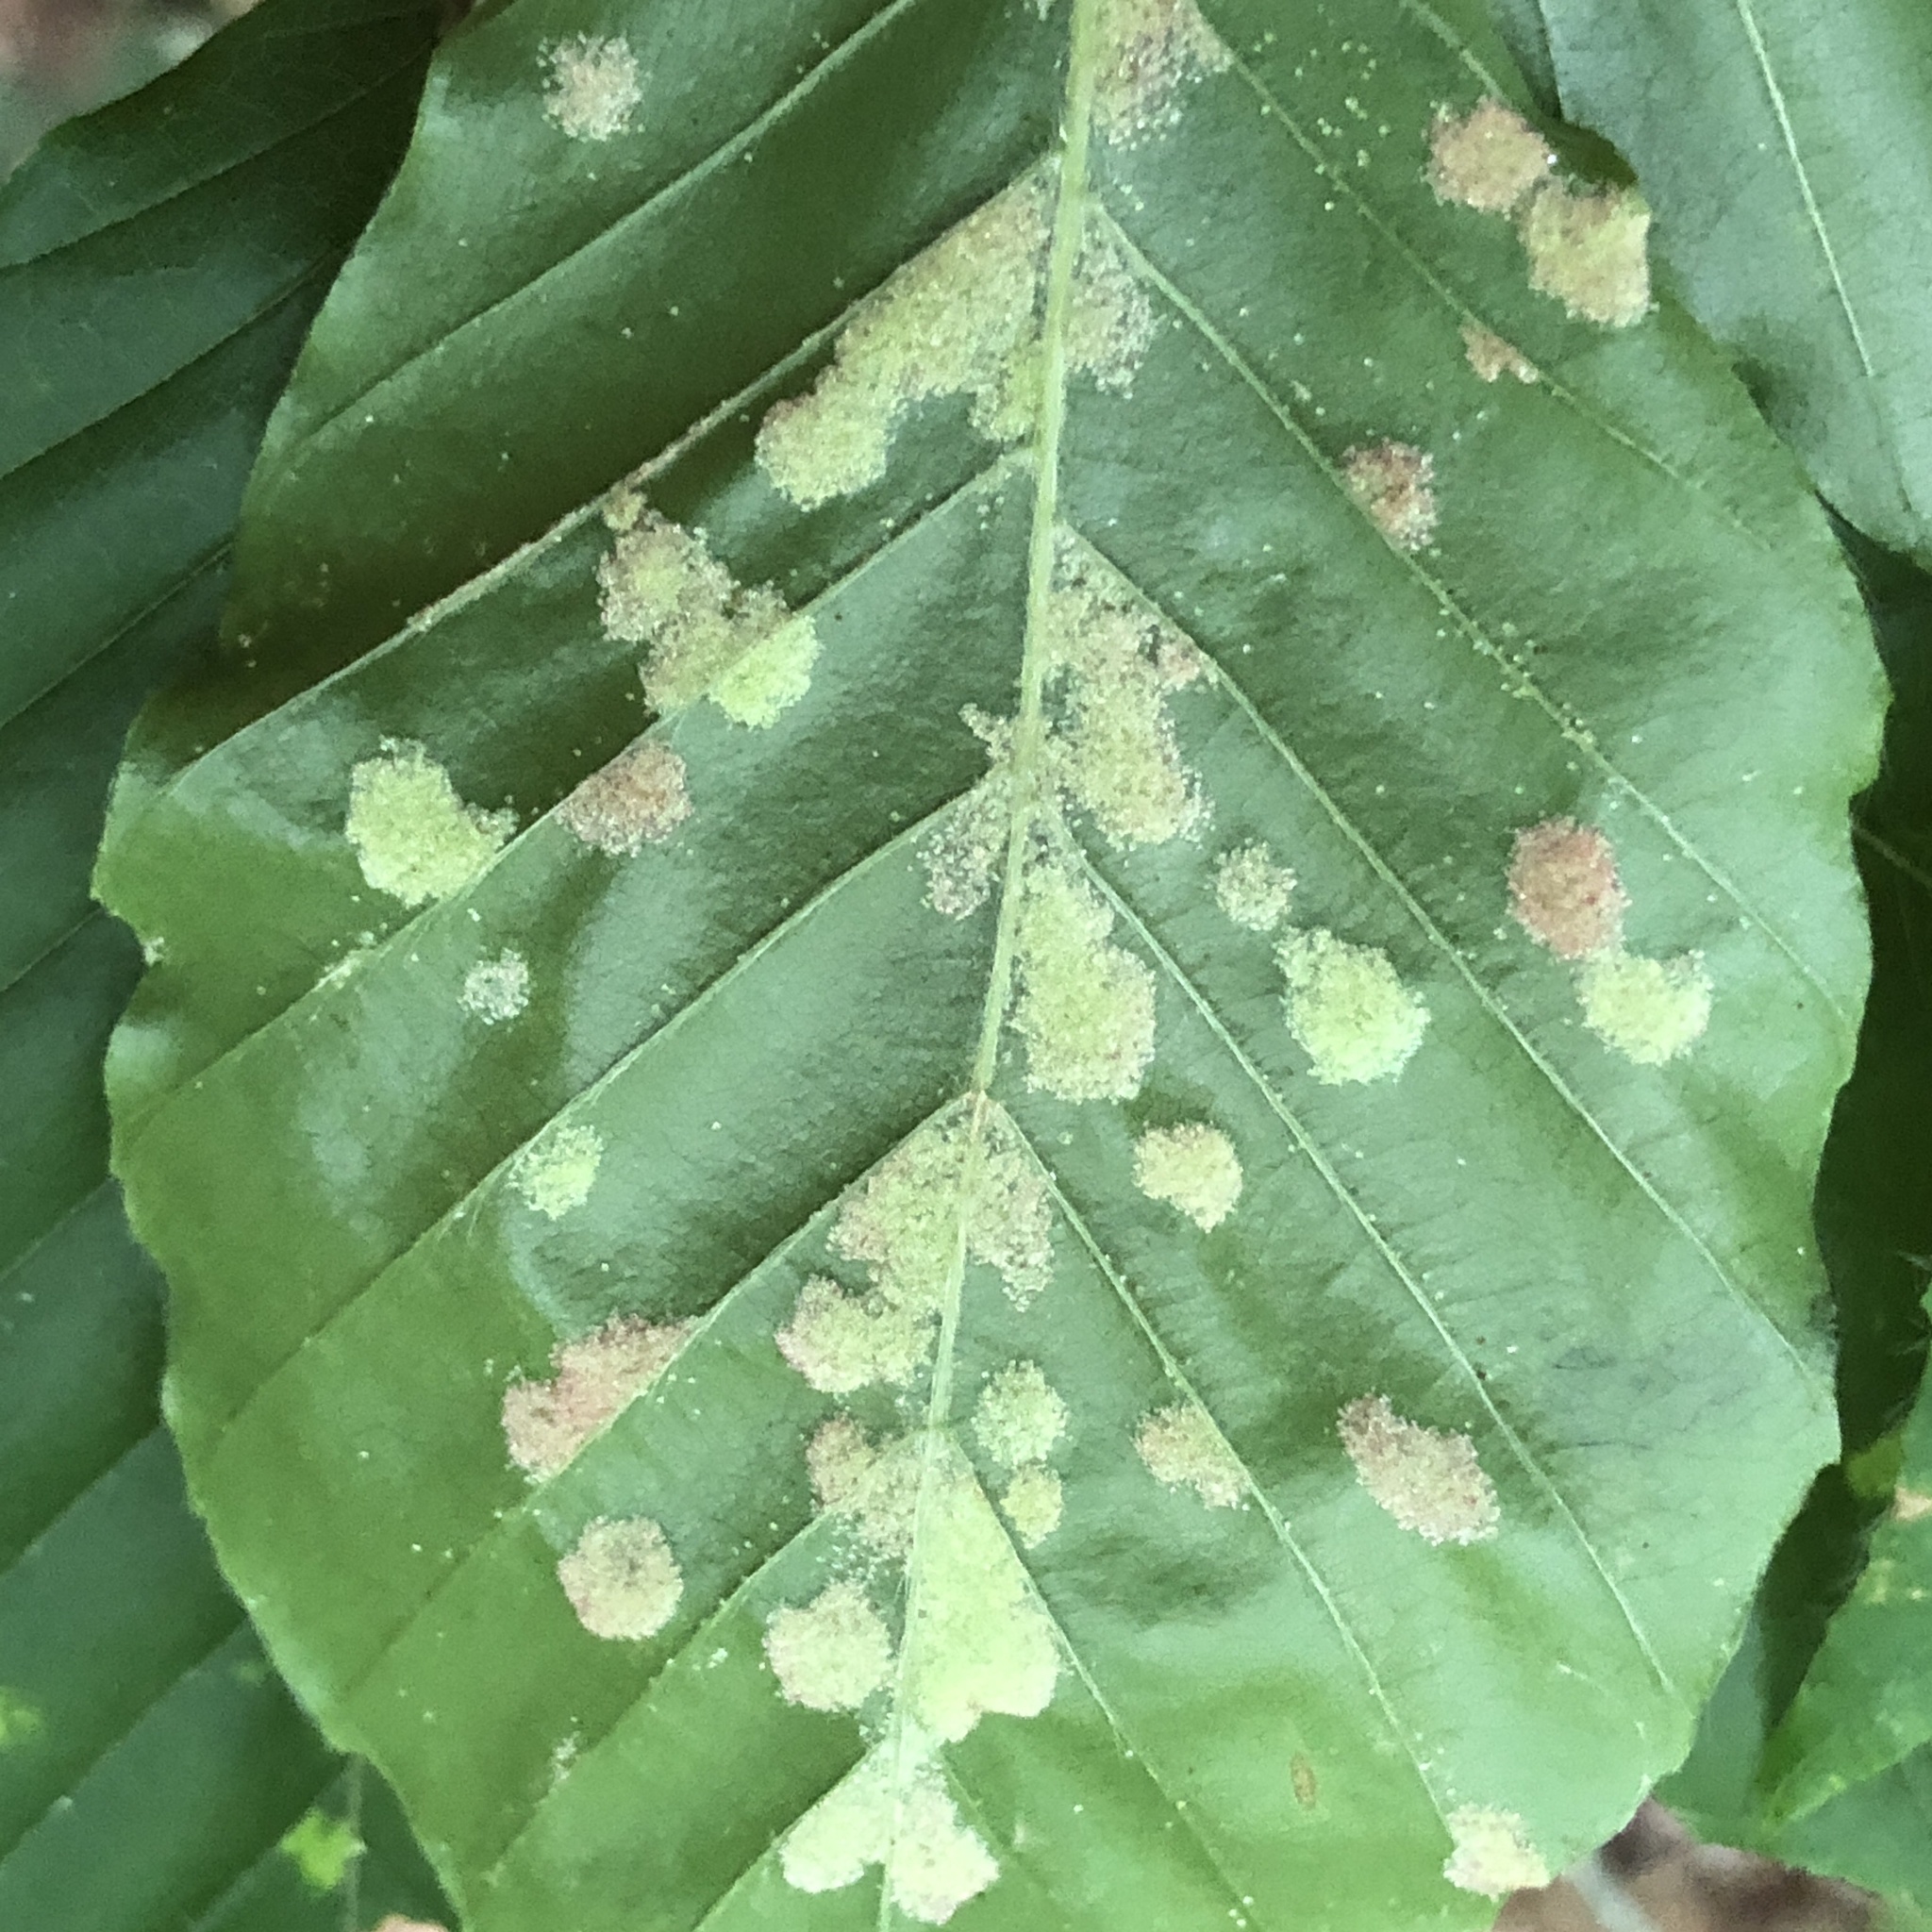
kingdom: Animalia
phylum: Arthropoda
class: Arachnida
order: Trombidiformes
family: Eriophyidae
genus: Acalitus
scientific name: Acalitus
